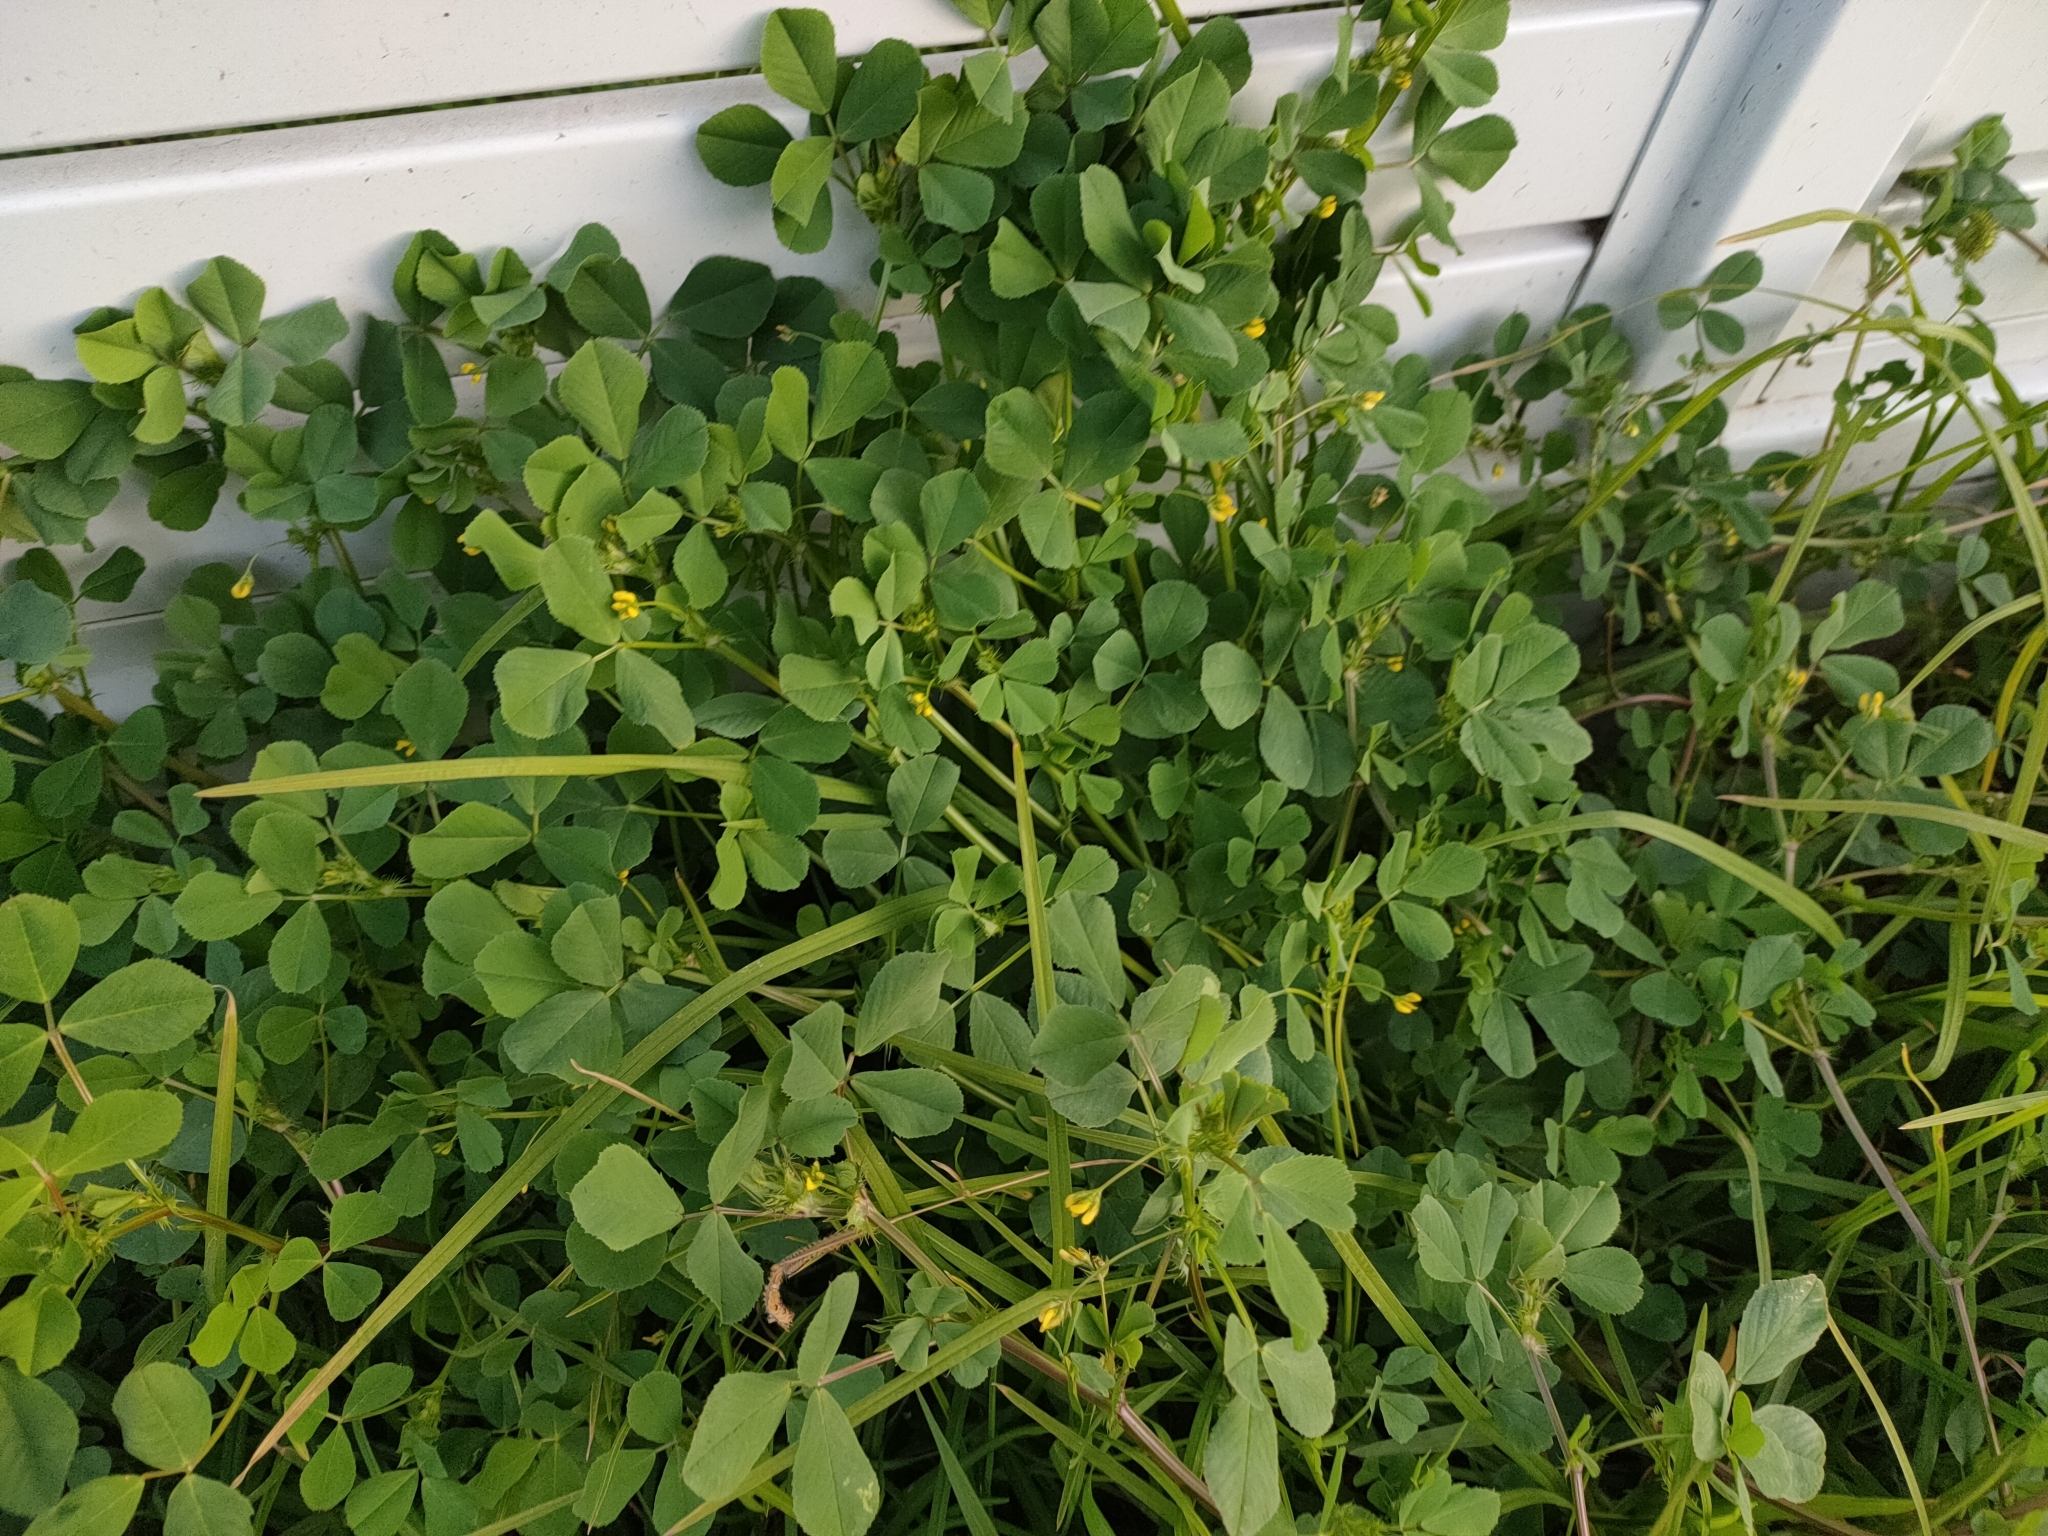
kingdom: Plantae
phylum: Tracheophyta
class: Magnoliopsida
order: Fabales
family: Fabaceae
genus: Medicago
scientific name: Medicago polymorpha
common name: Burclover
